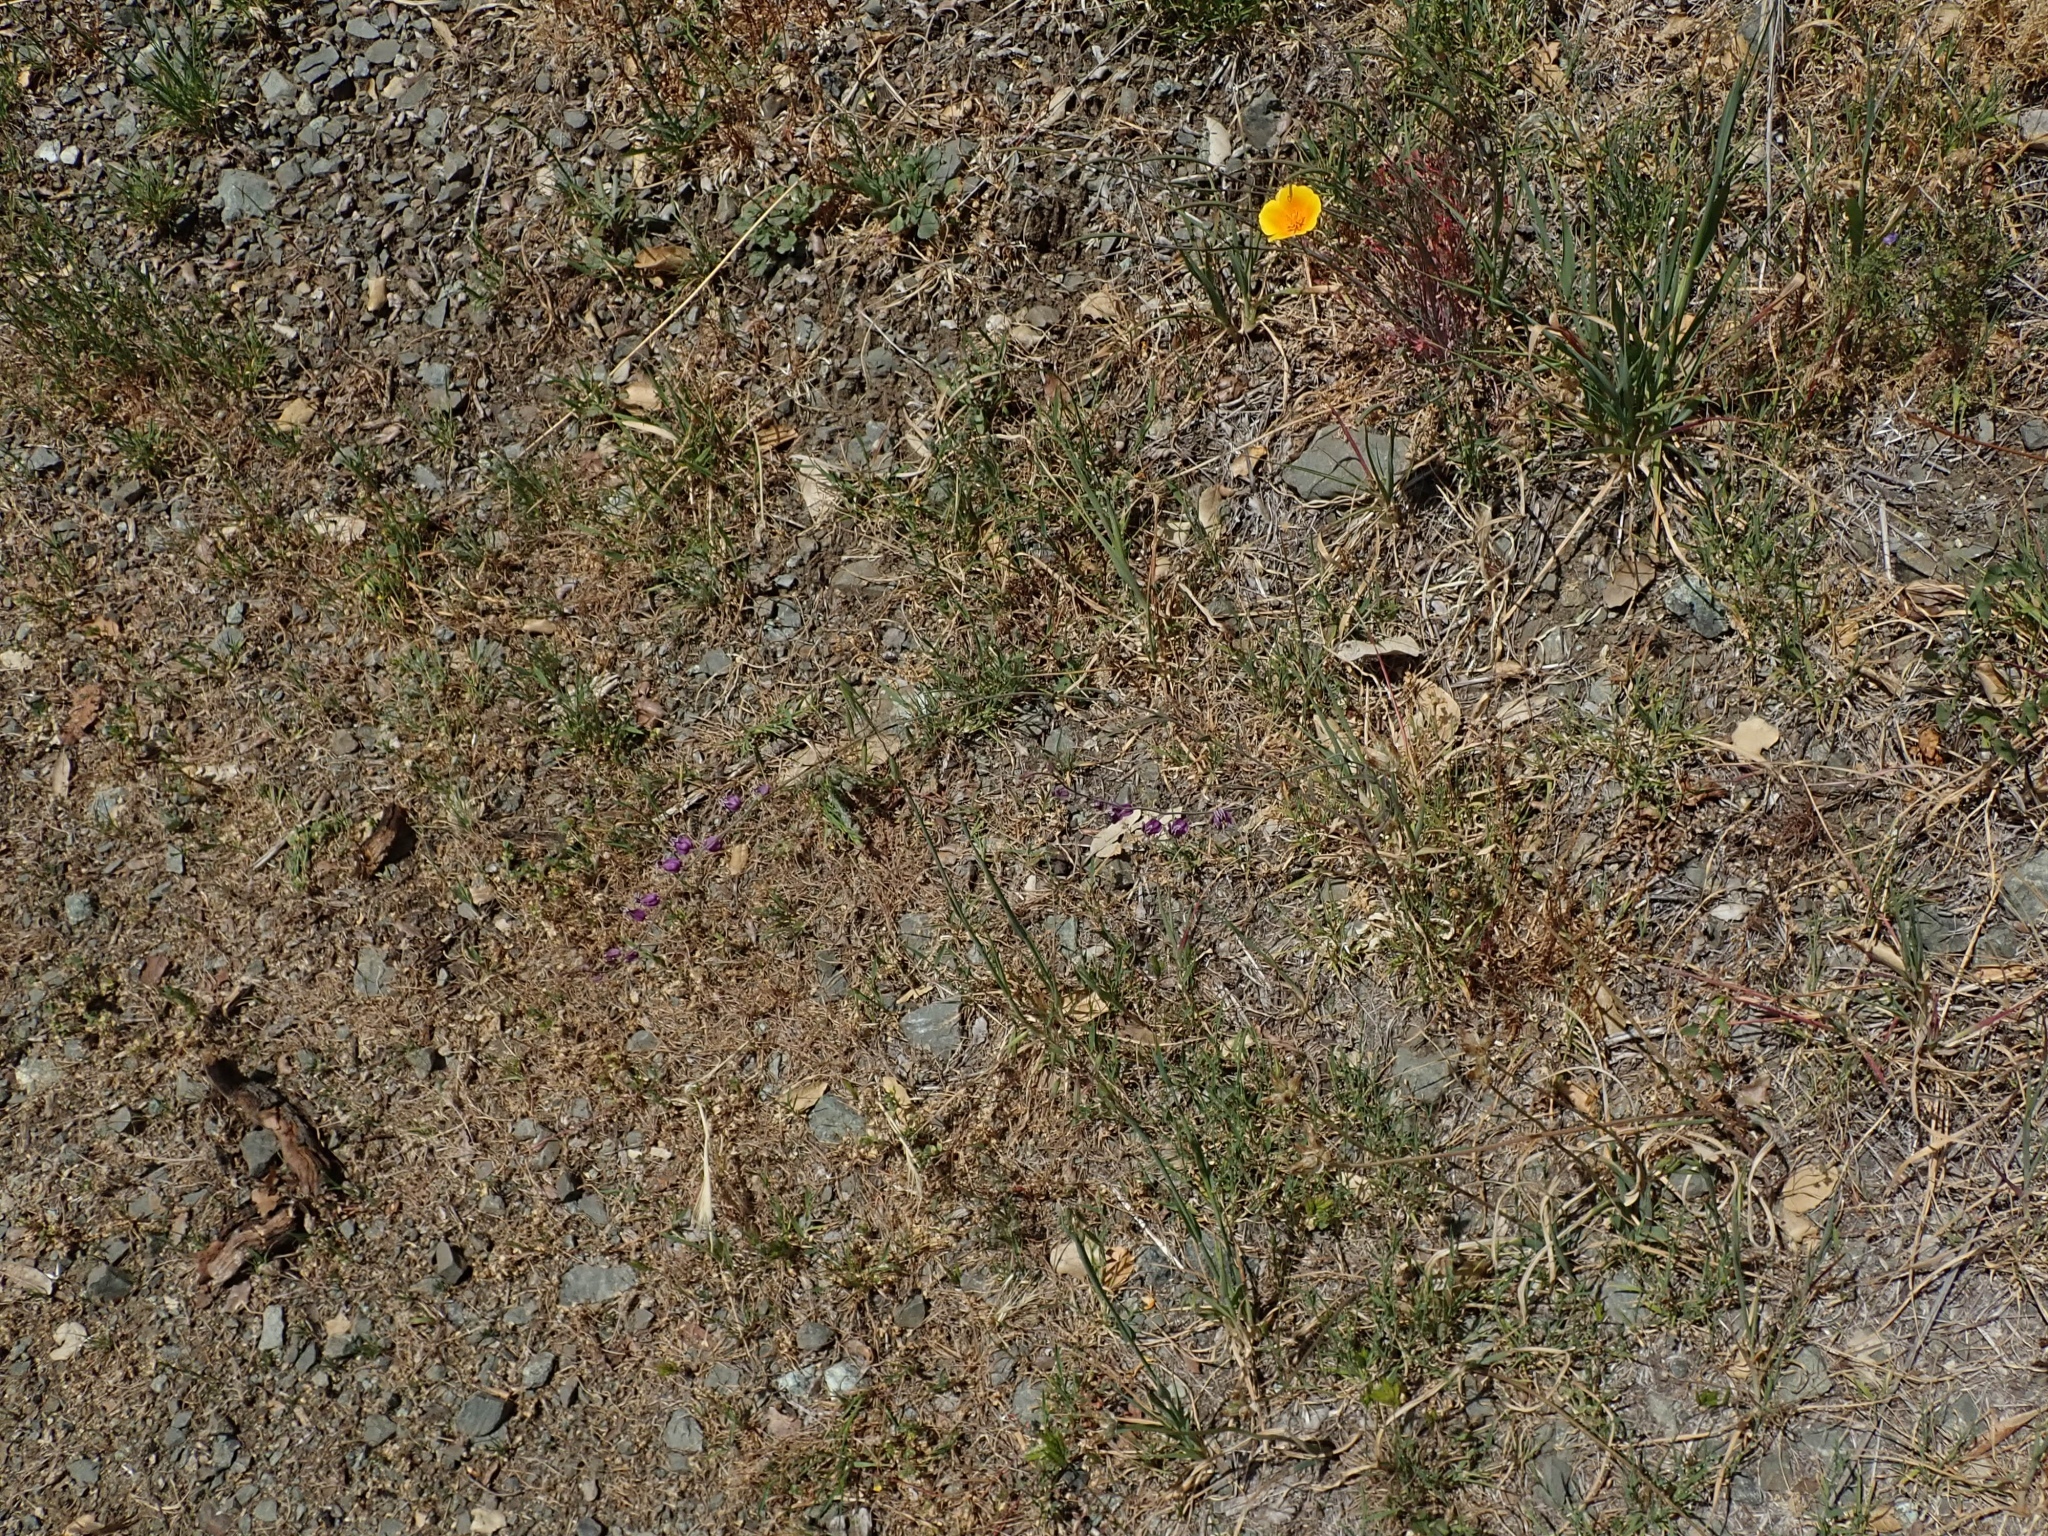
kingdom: Plantae
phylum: Tracheophyta
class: Magnoliopsida
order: Brassicales
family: Brassicaceae
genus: Streptanthus
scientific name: Streptanthus glandulosus
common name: Jewel-flower
